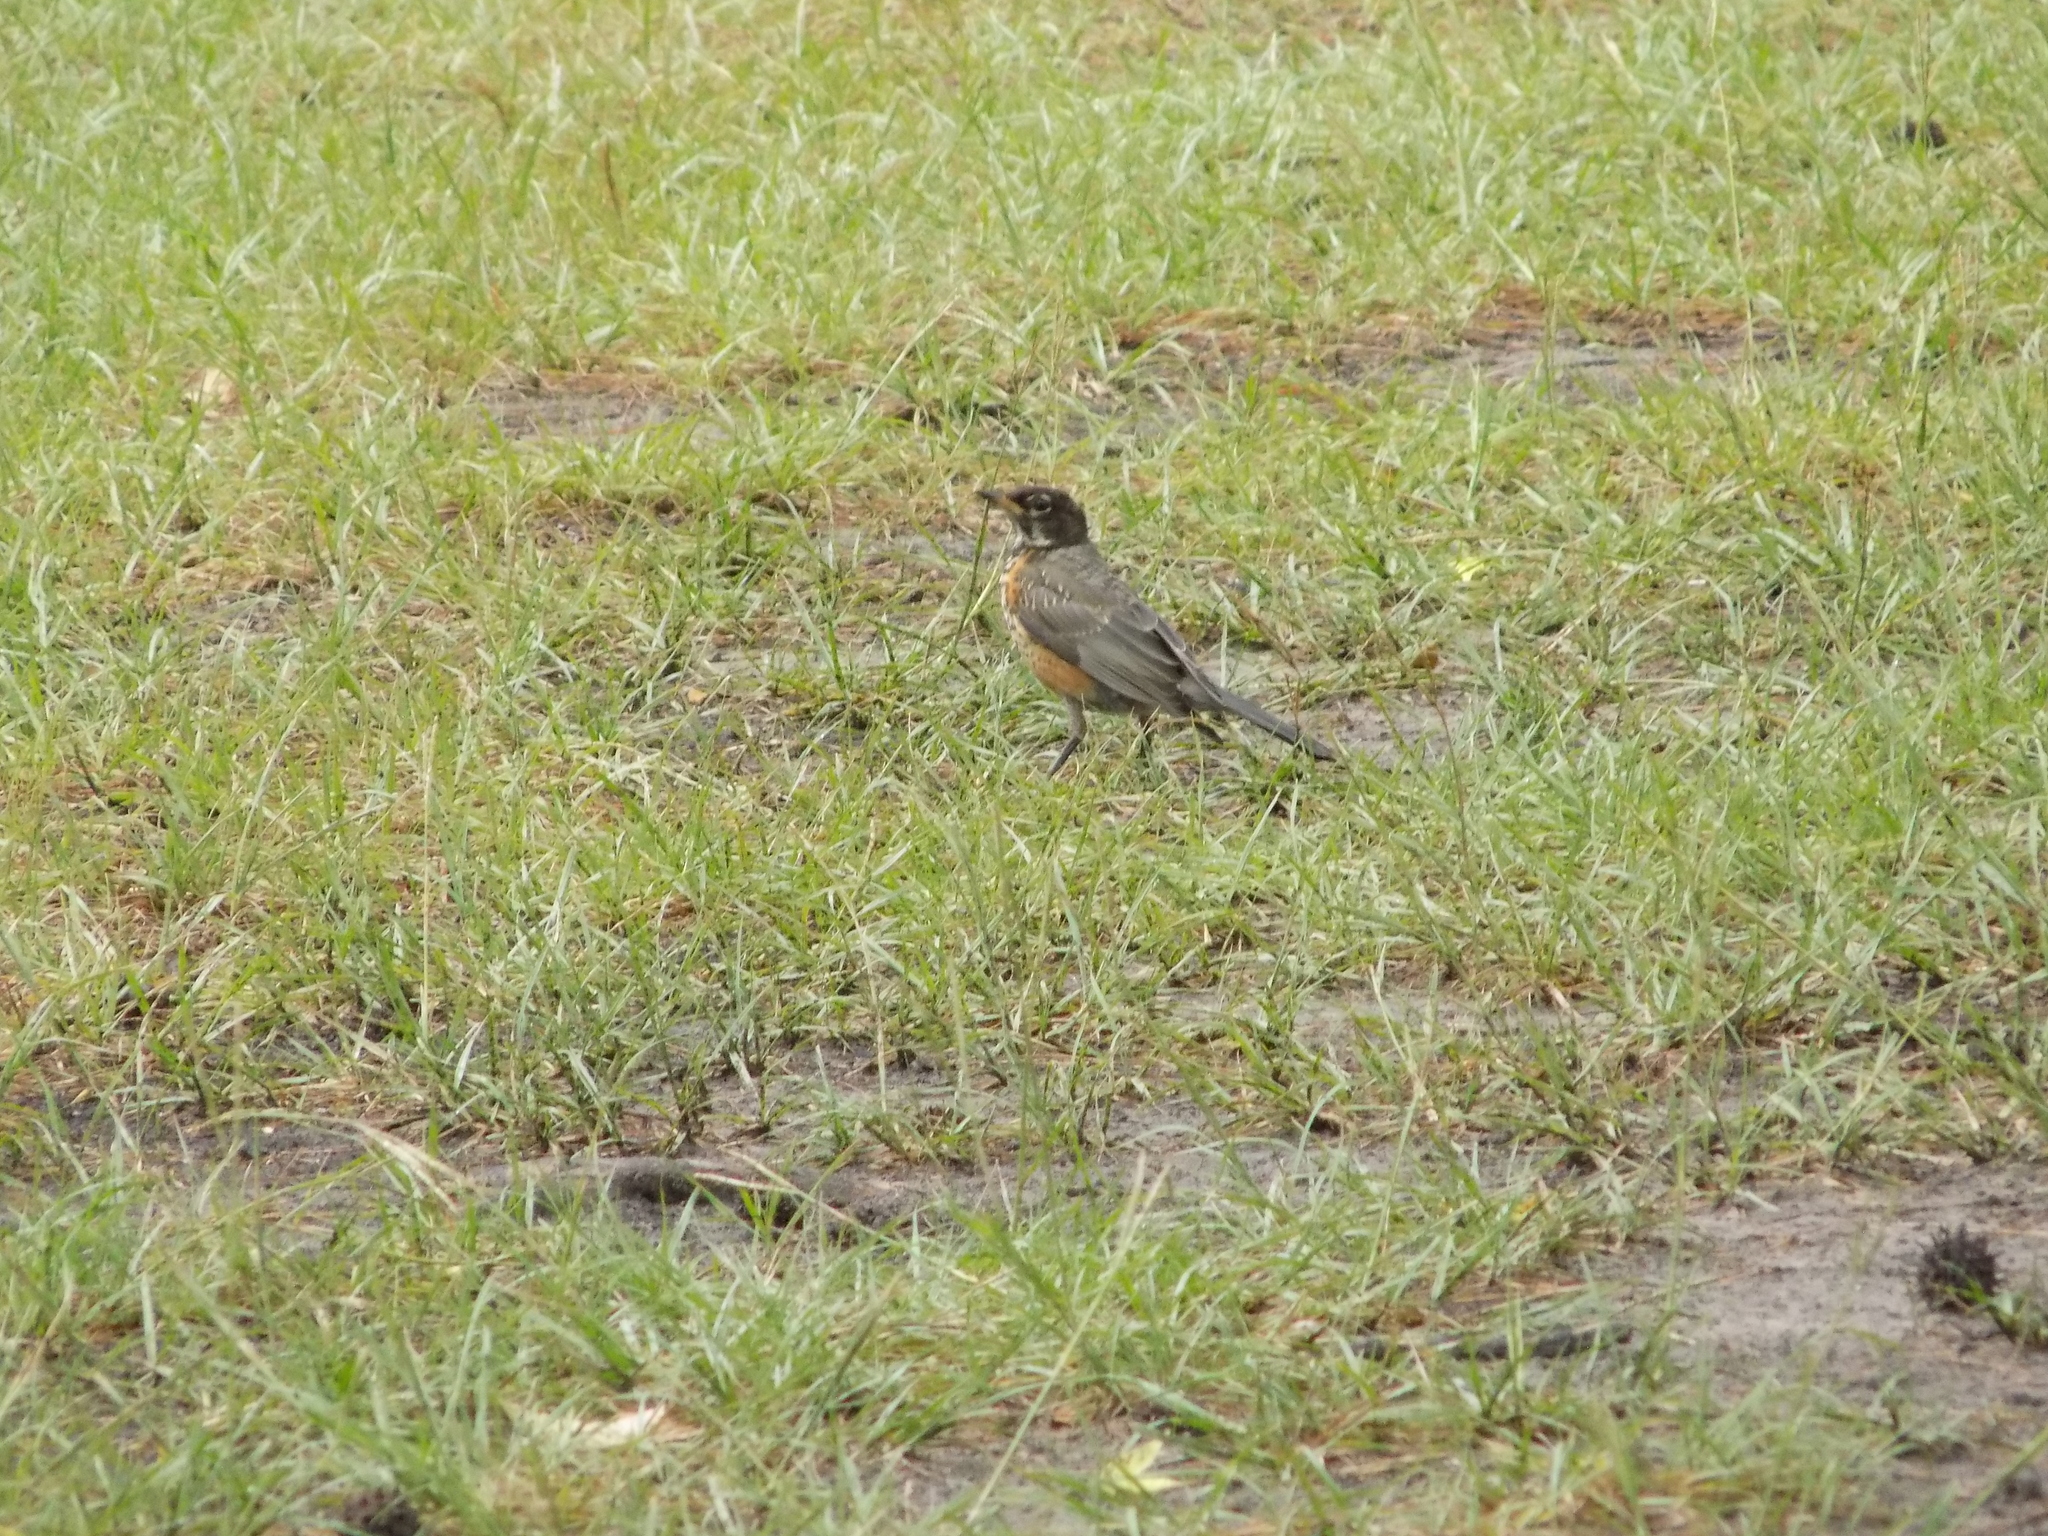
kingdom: Animalia
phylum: Chordata
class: Aves
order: Passeriformes
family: Turdidae
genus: Turdus
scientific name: Turdus migratorius
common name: American robin
